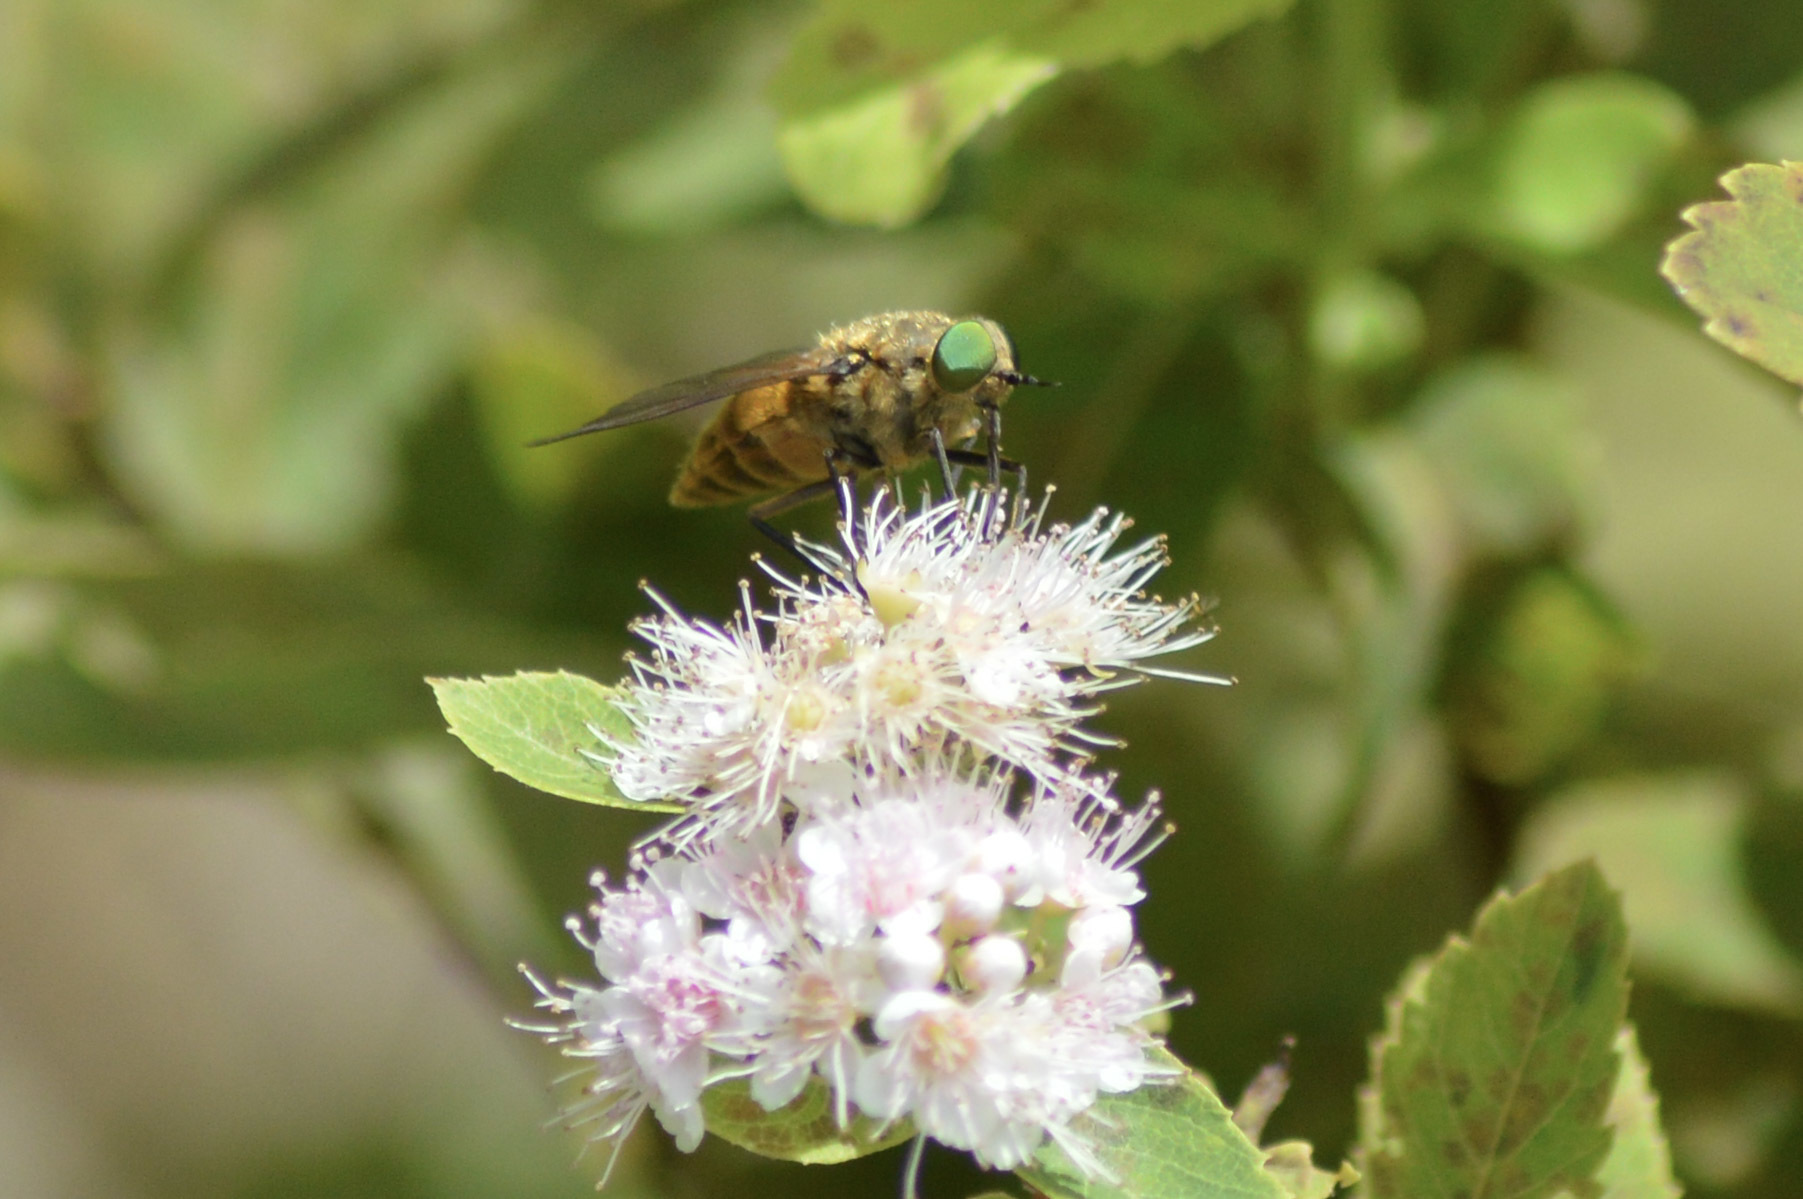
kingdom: Animalia
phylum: Arthropoda
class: Insecta
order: Diptera
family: Tabanidae
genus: Stonemyia
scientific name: Stonemyia tranquilla
